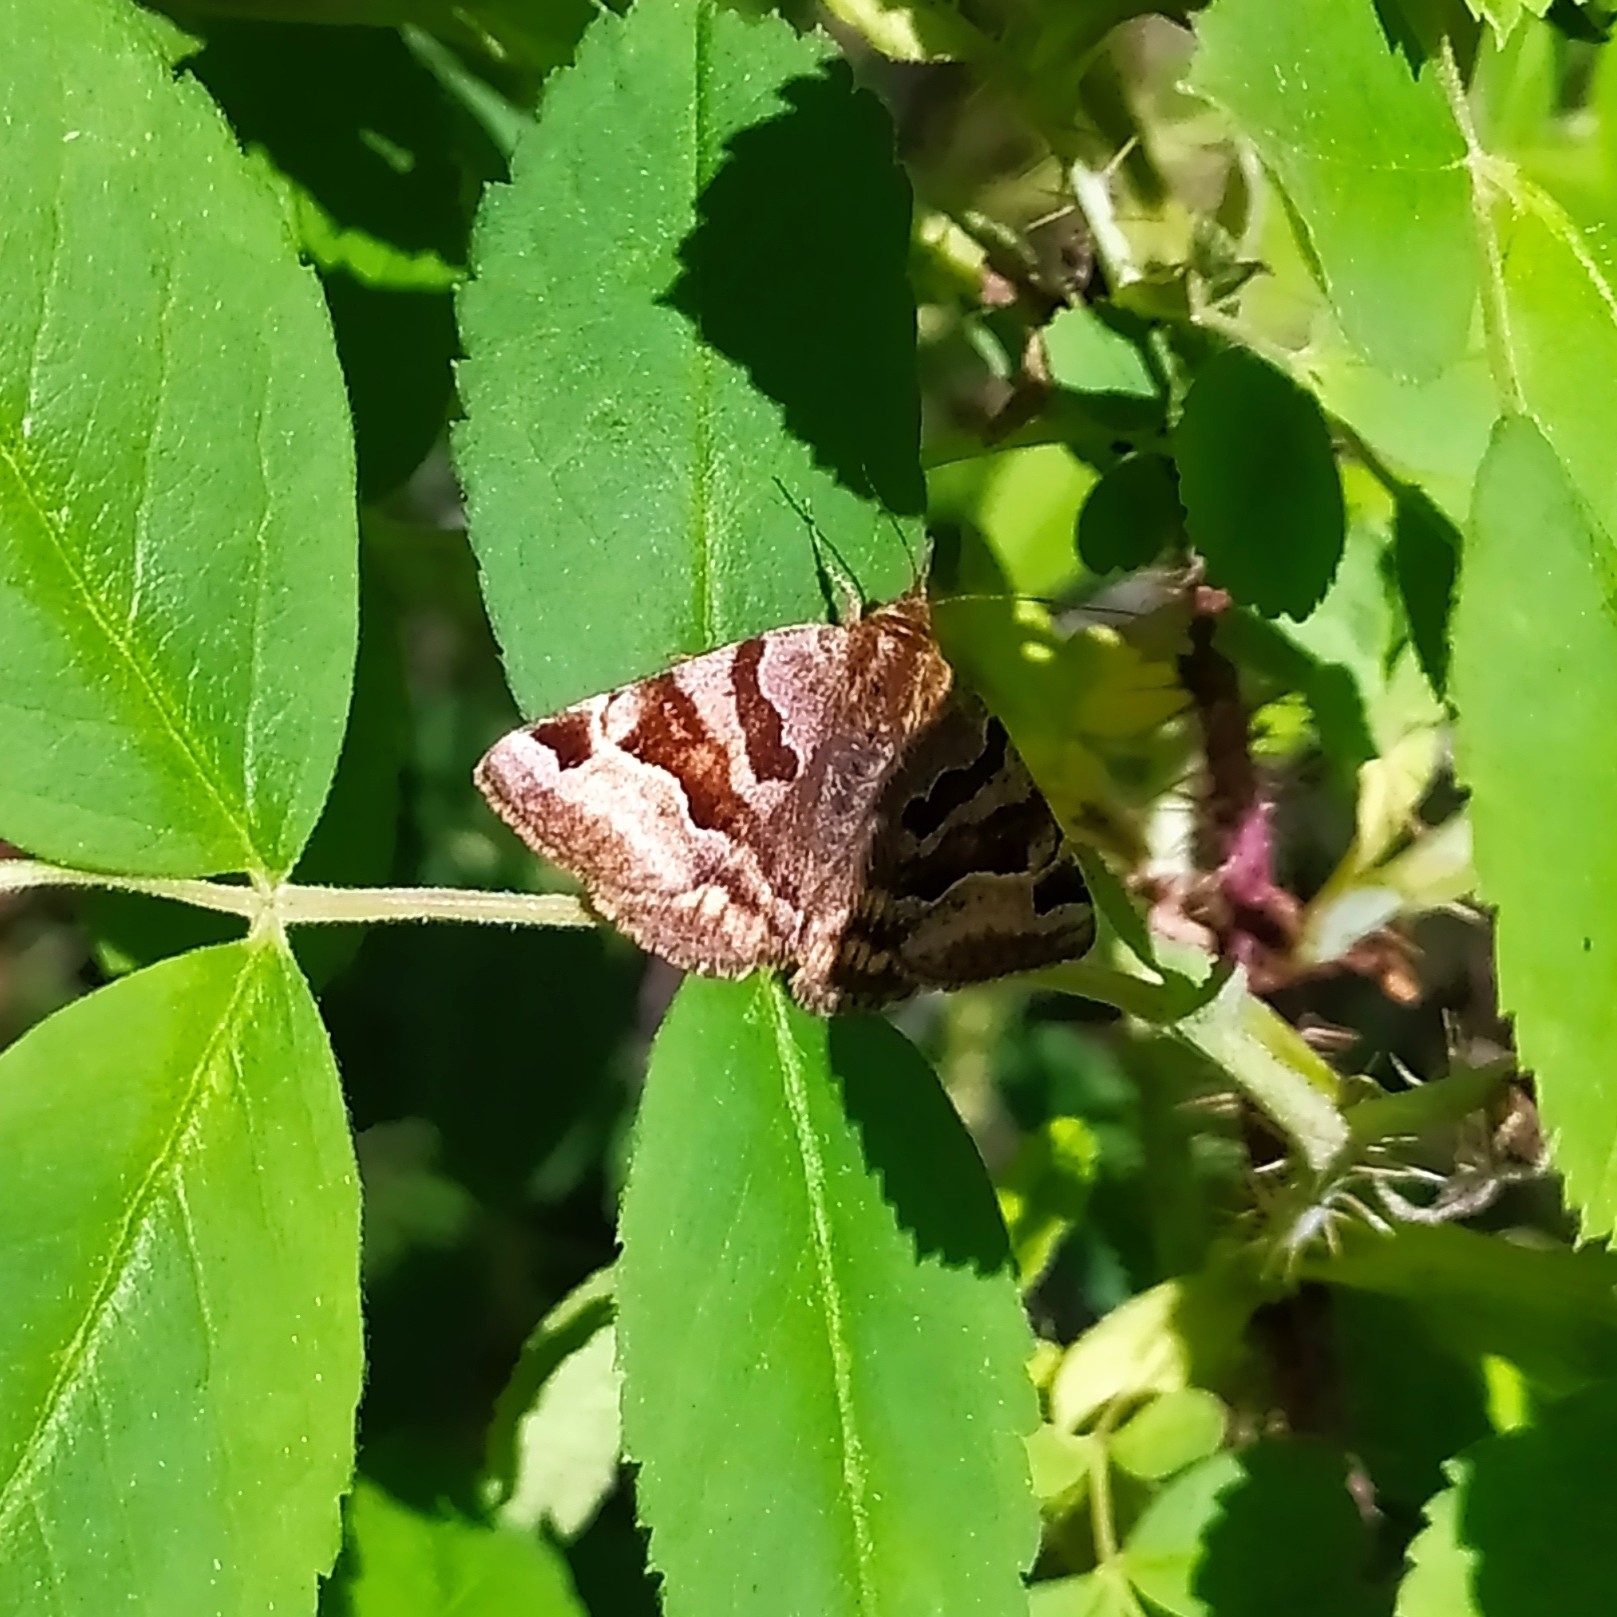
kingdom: Animalia
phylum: Arthropoda
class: Insecta
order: Lepidoptera
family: Erebidae
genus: Euclidia
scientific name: Euclidia glyphica
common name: Burnet companion
